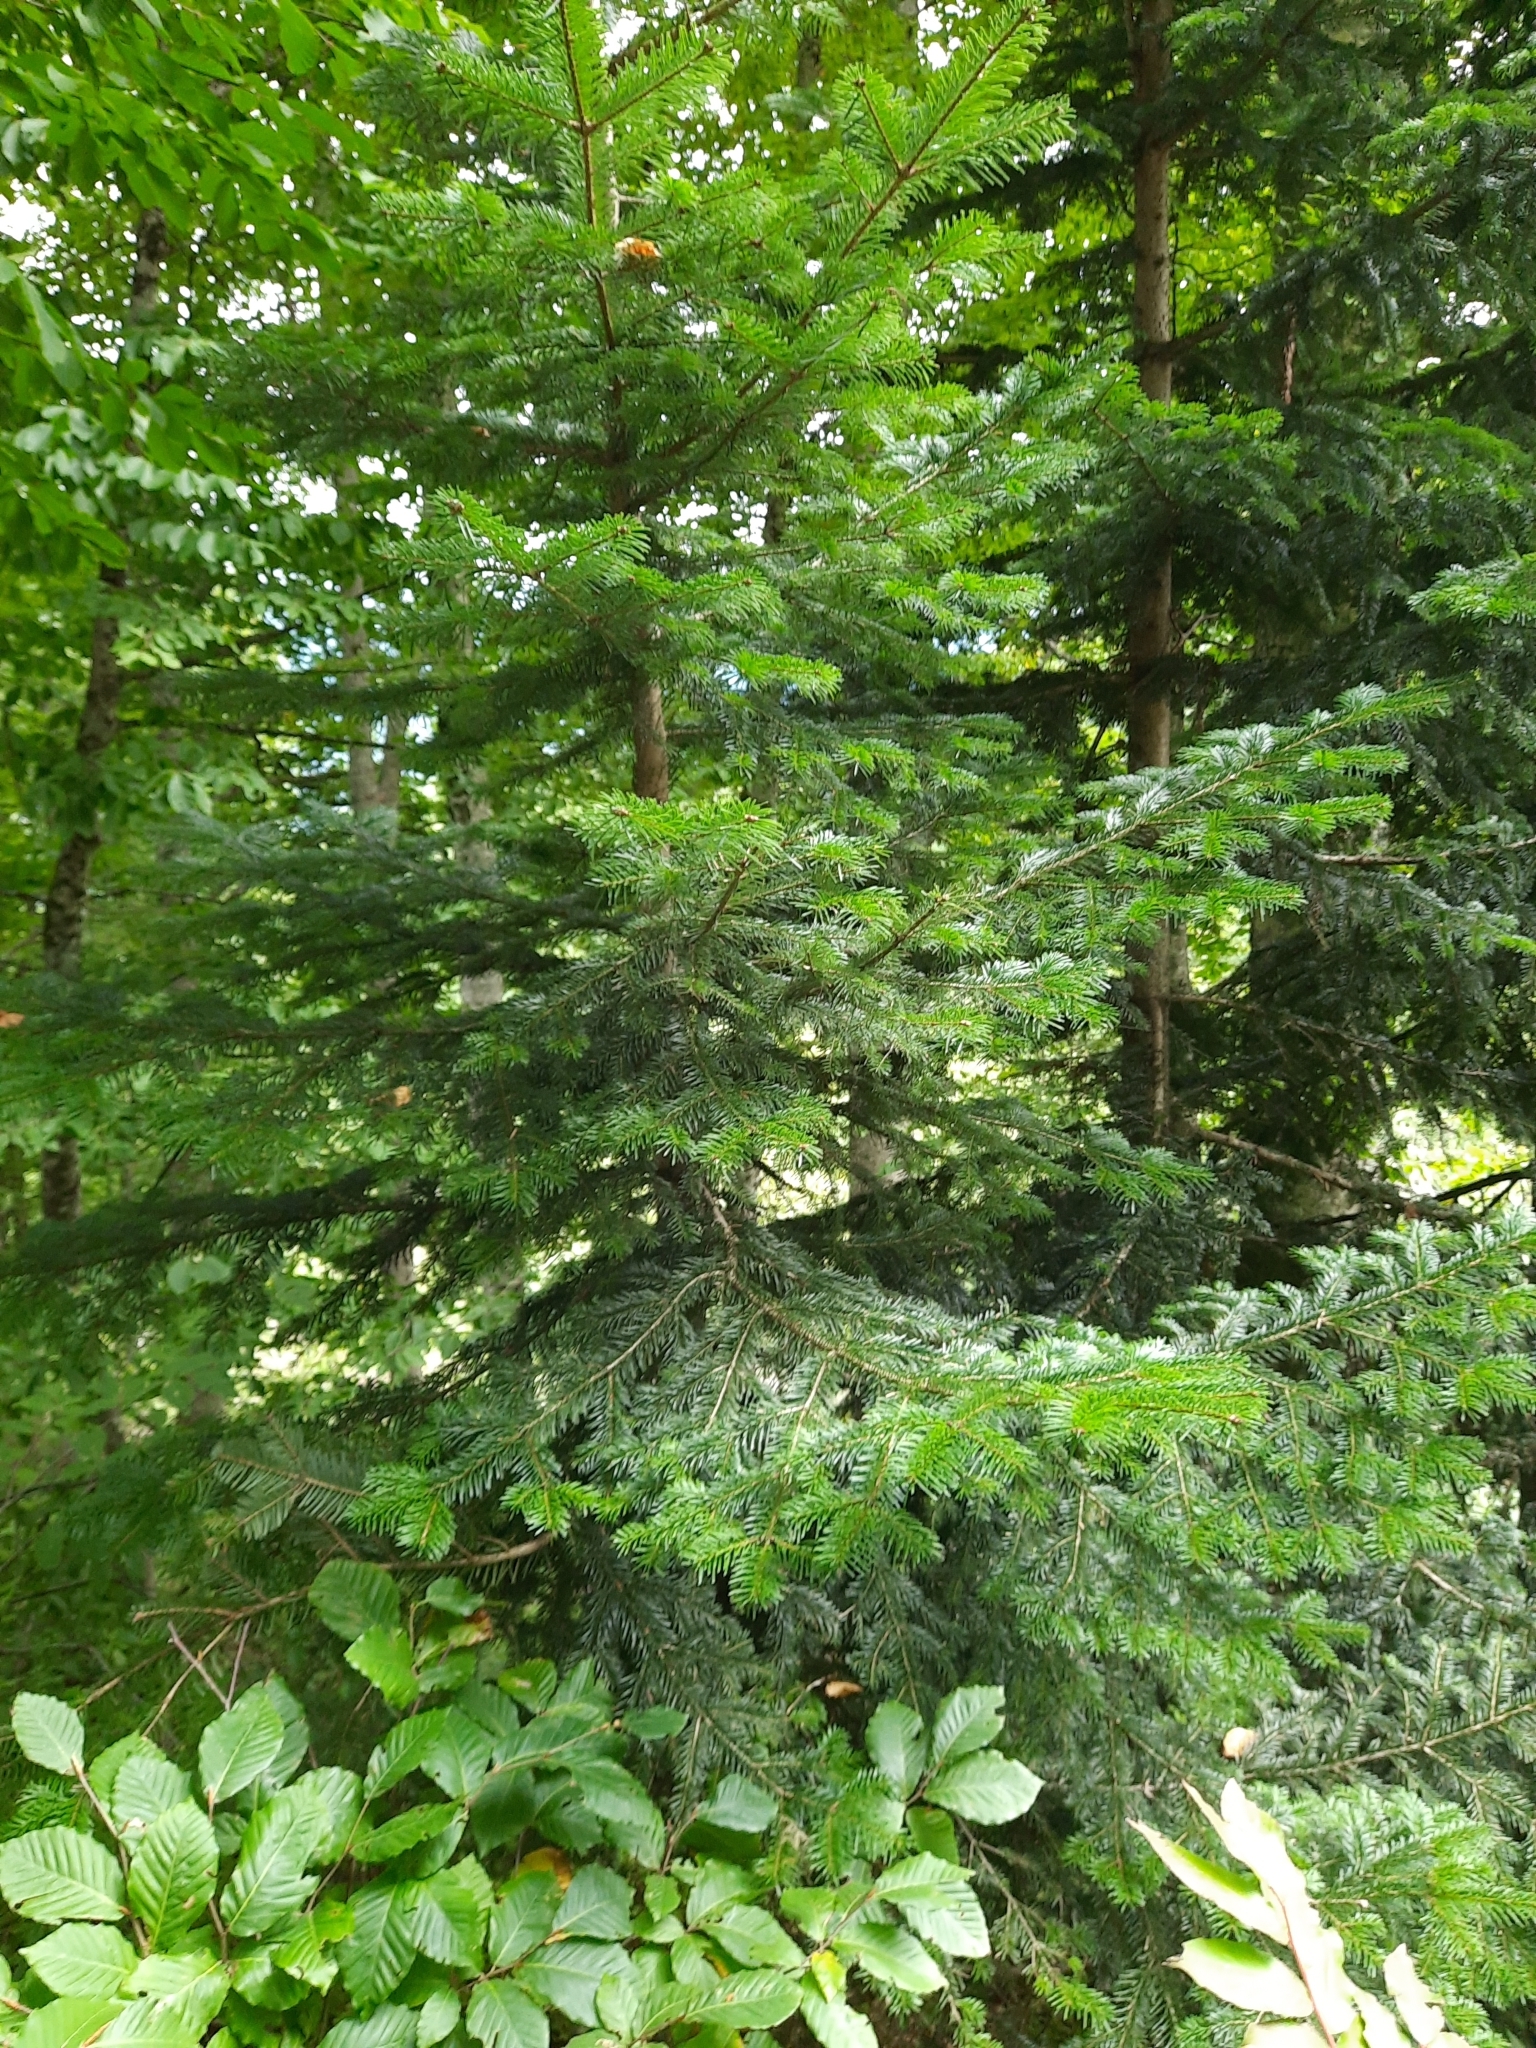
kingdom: Plantae
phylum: Tracheophyta
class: Pinopsida
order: Pinales
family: Pinaceae
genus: Abies
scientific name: Abies nordmanniana
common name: Caucasian fir
